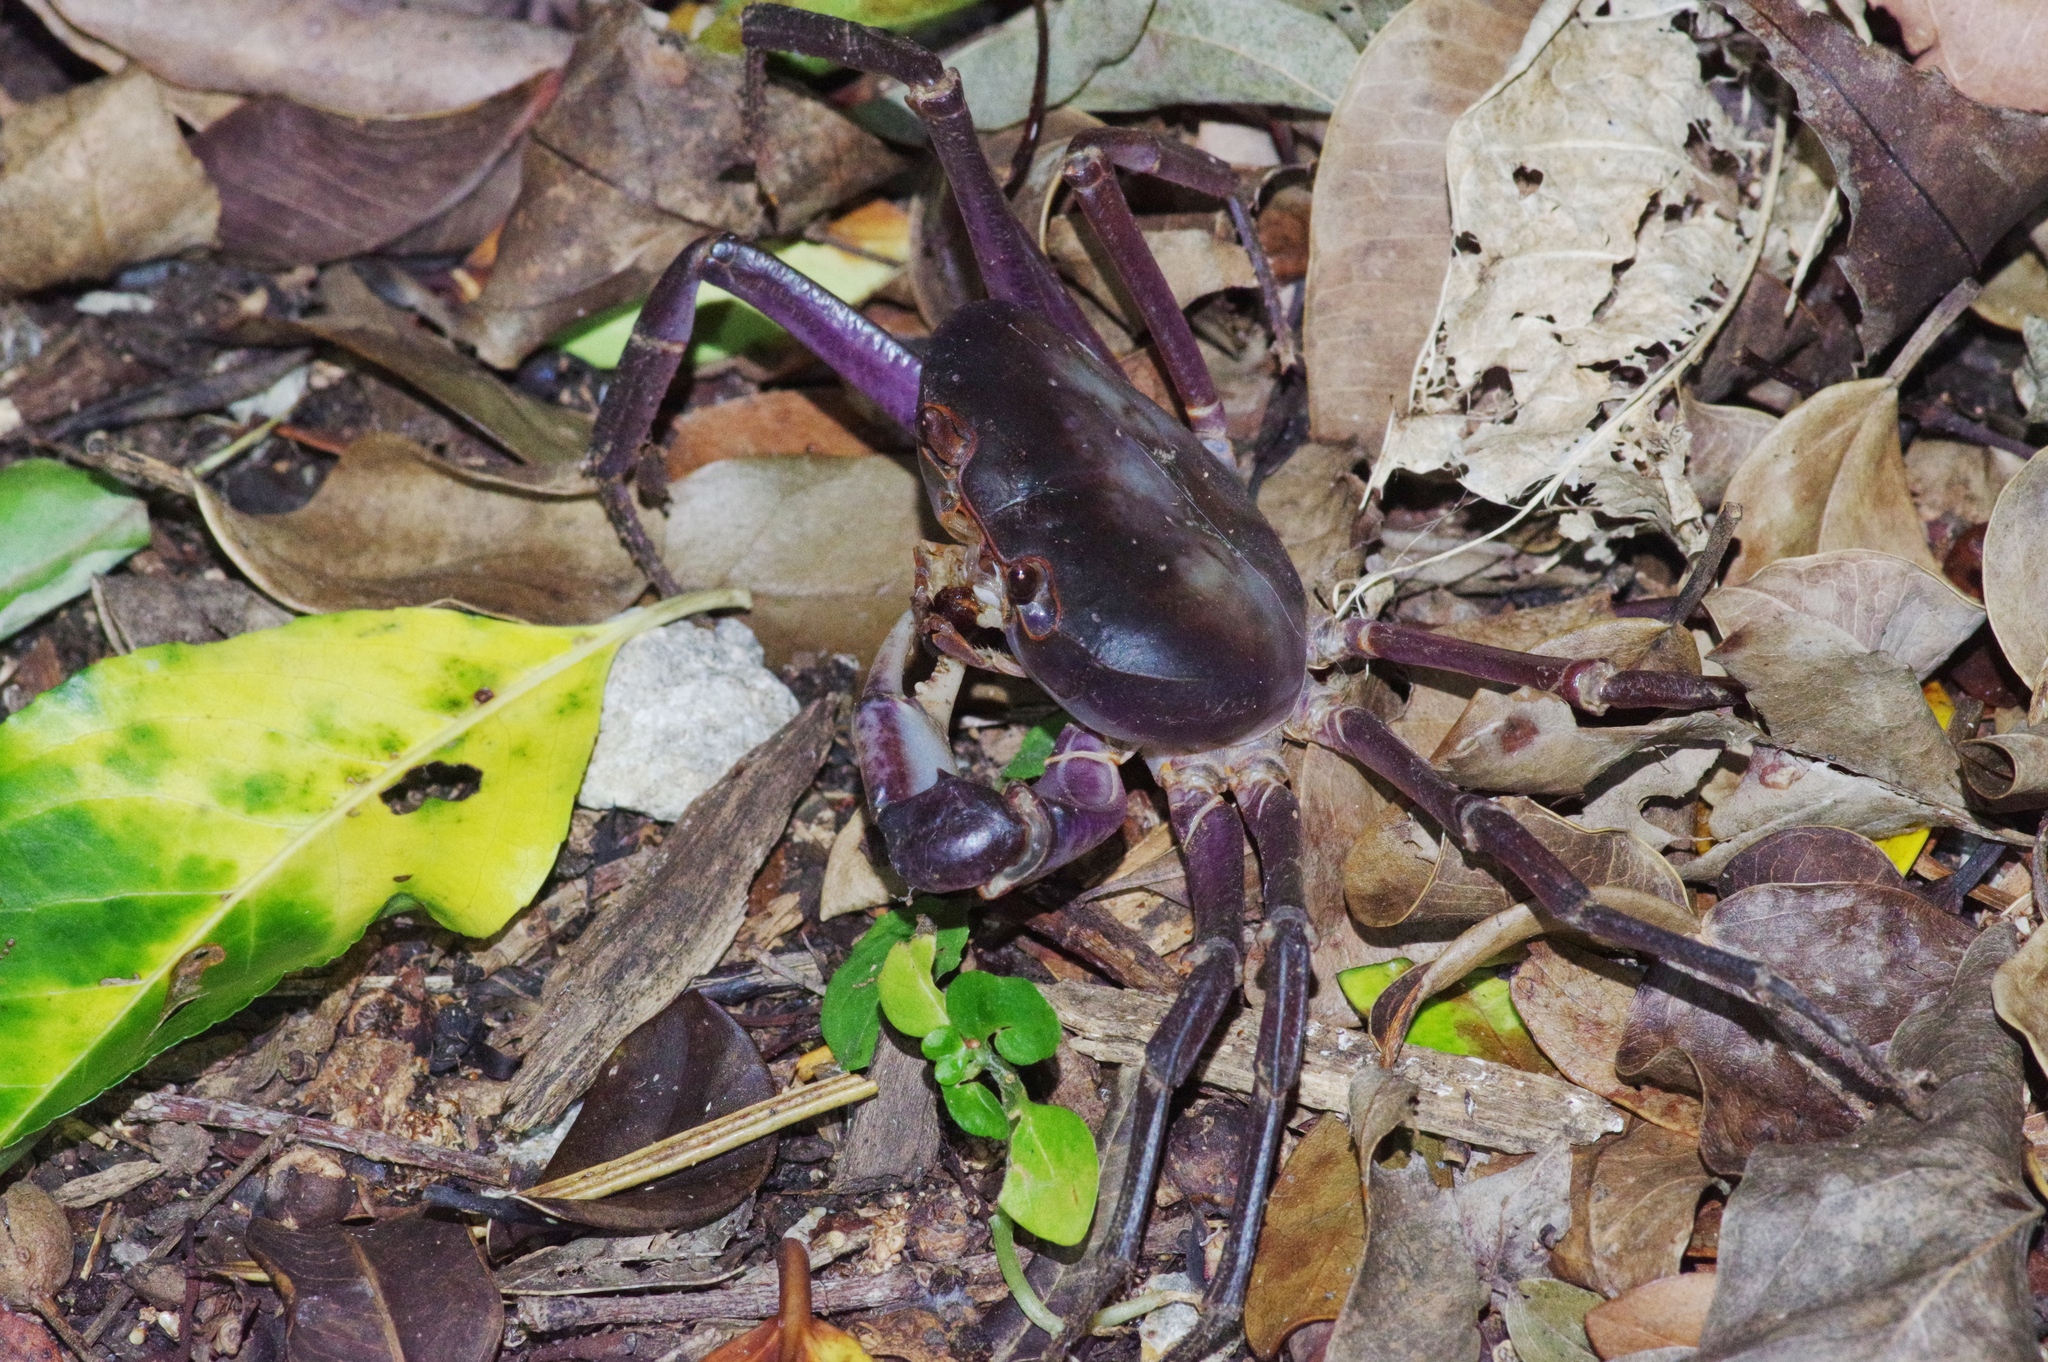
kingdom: Animalia
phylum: Arthropoda
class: Malacostraca
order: Decapoda
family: Potamidae
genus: Geothelphusa
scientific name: Geothelphusa tenuimanus
